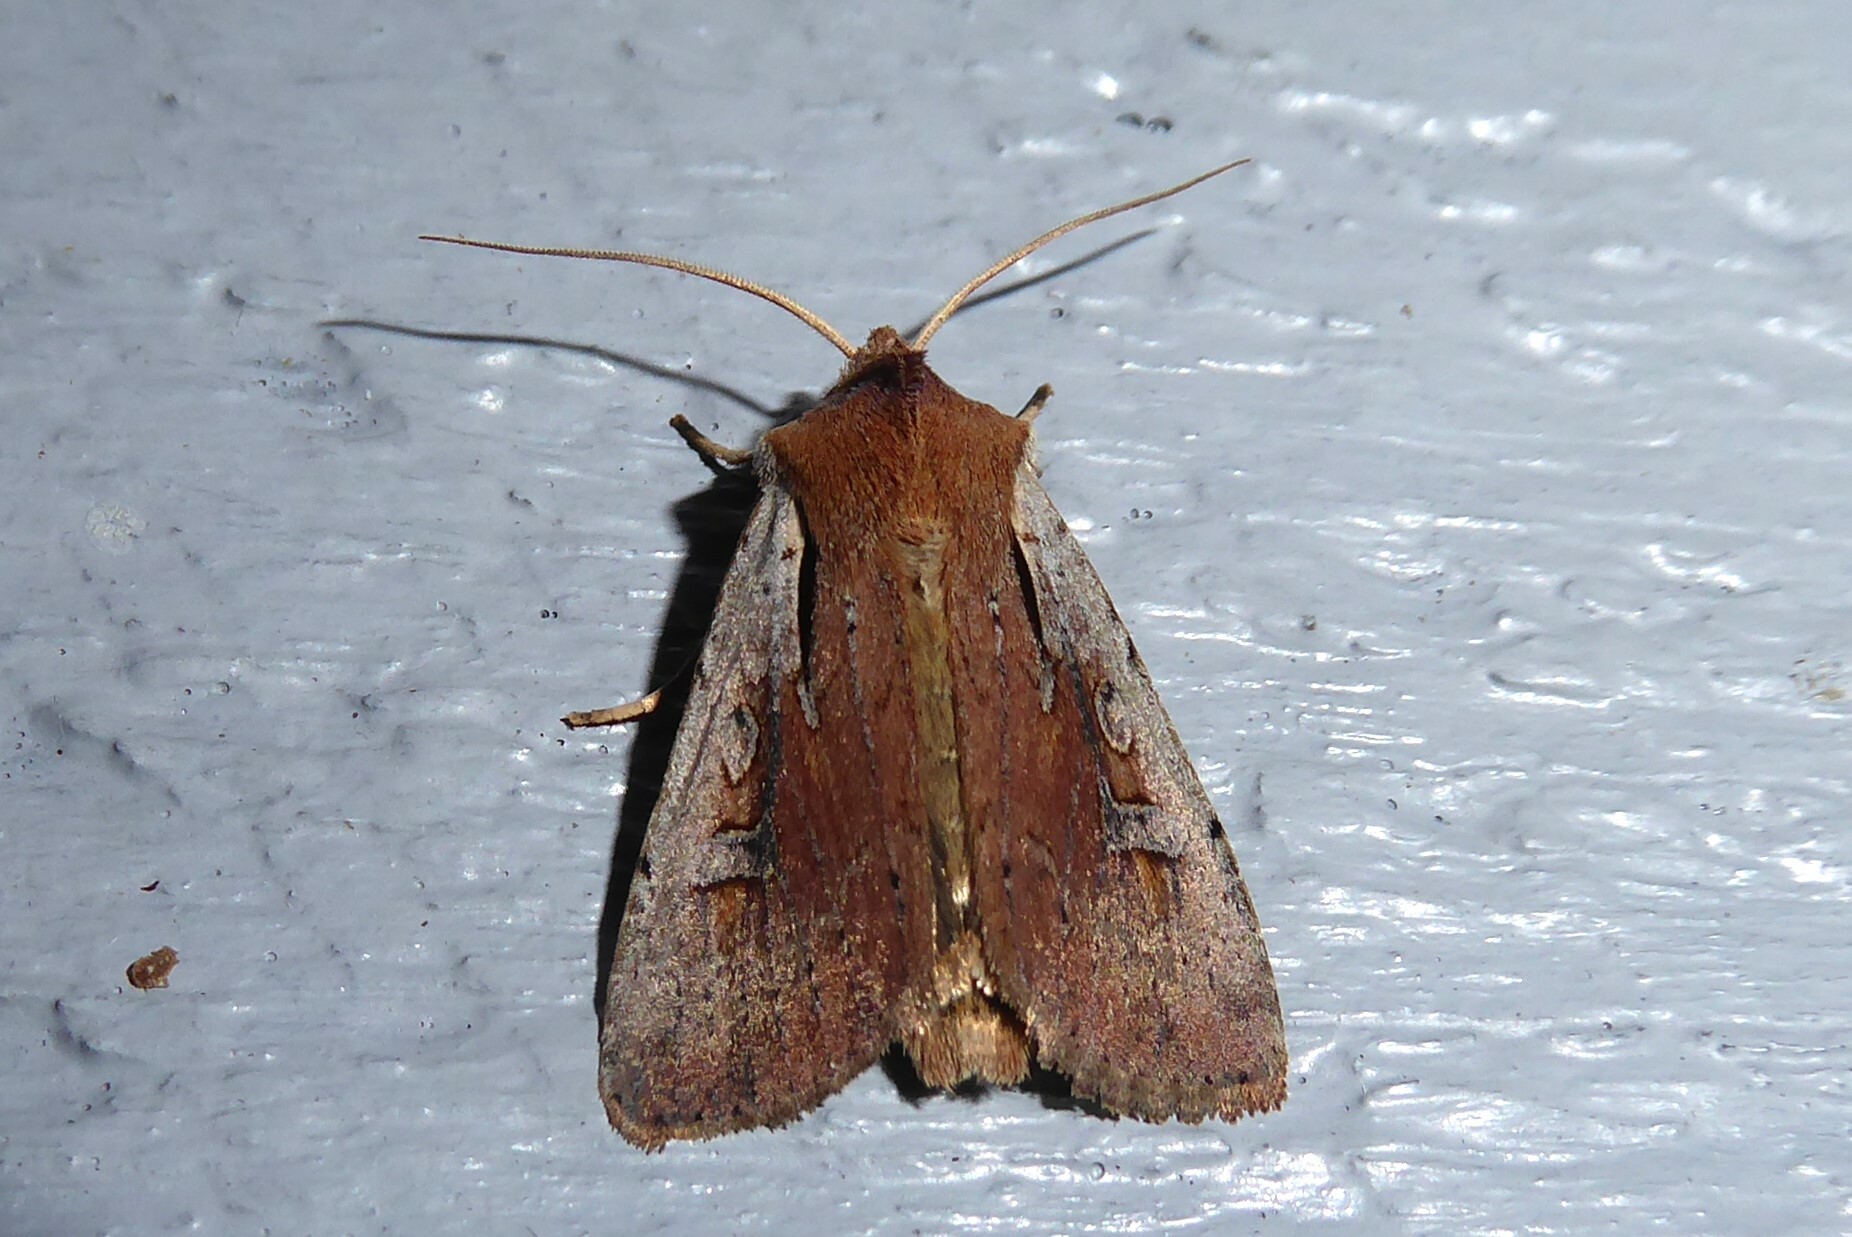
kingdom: Animalia
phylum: Arthropoda
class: Insecta
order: Lepidoptera
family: Noctuidae
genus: Ichneutica
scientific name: Ichneutica atristriga
